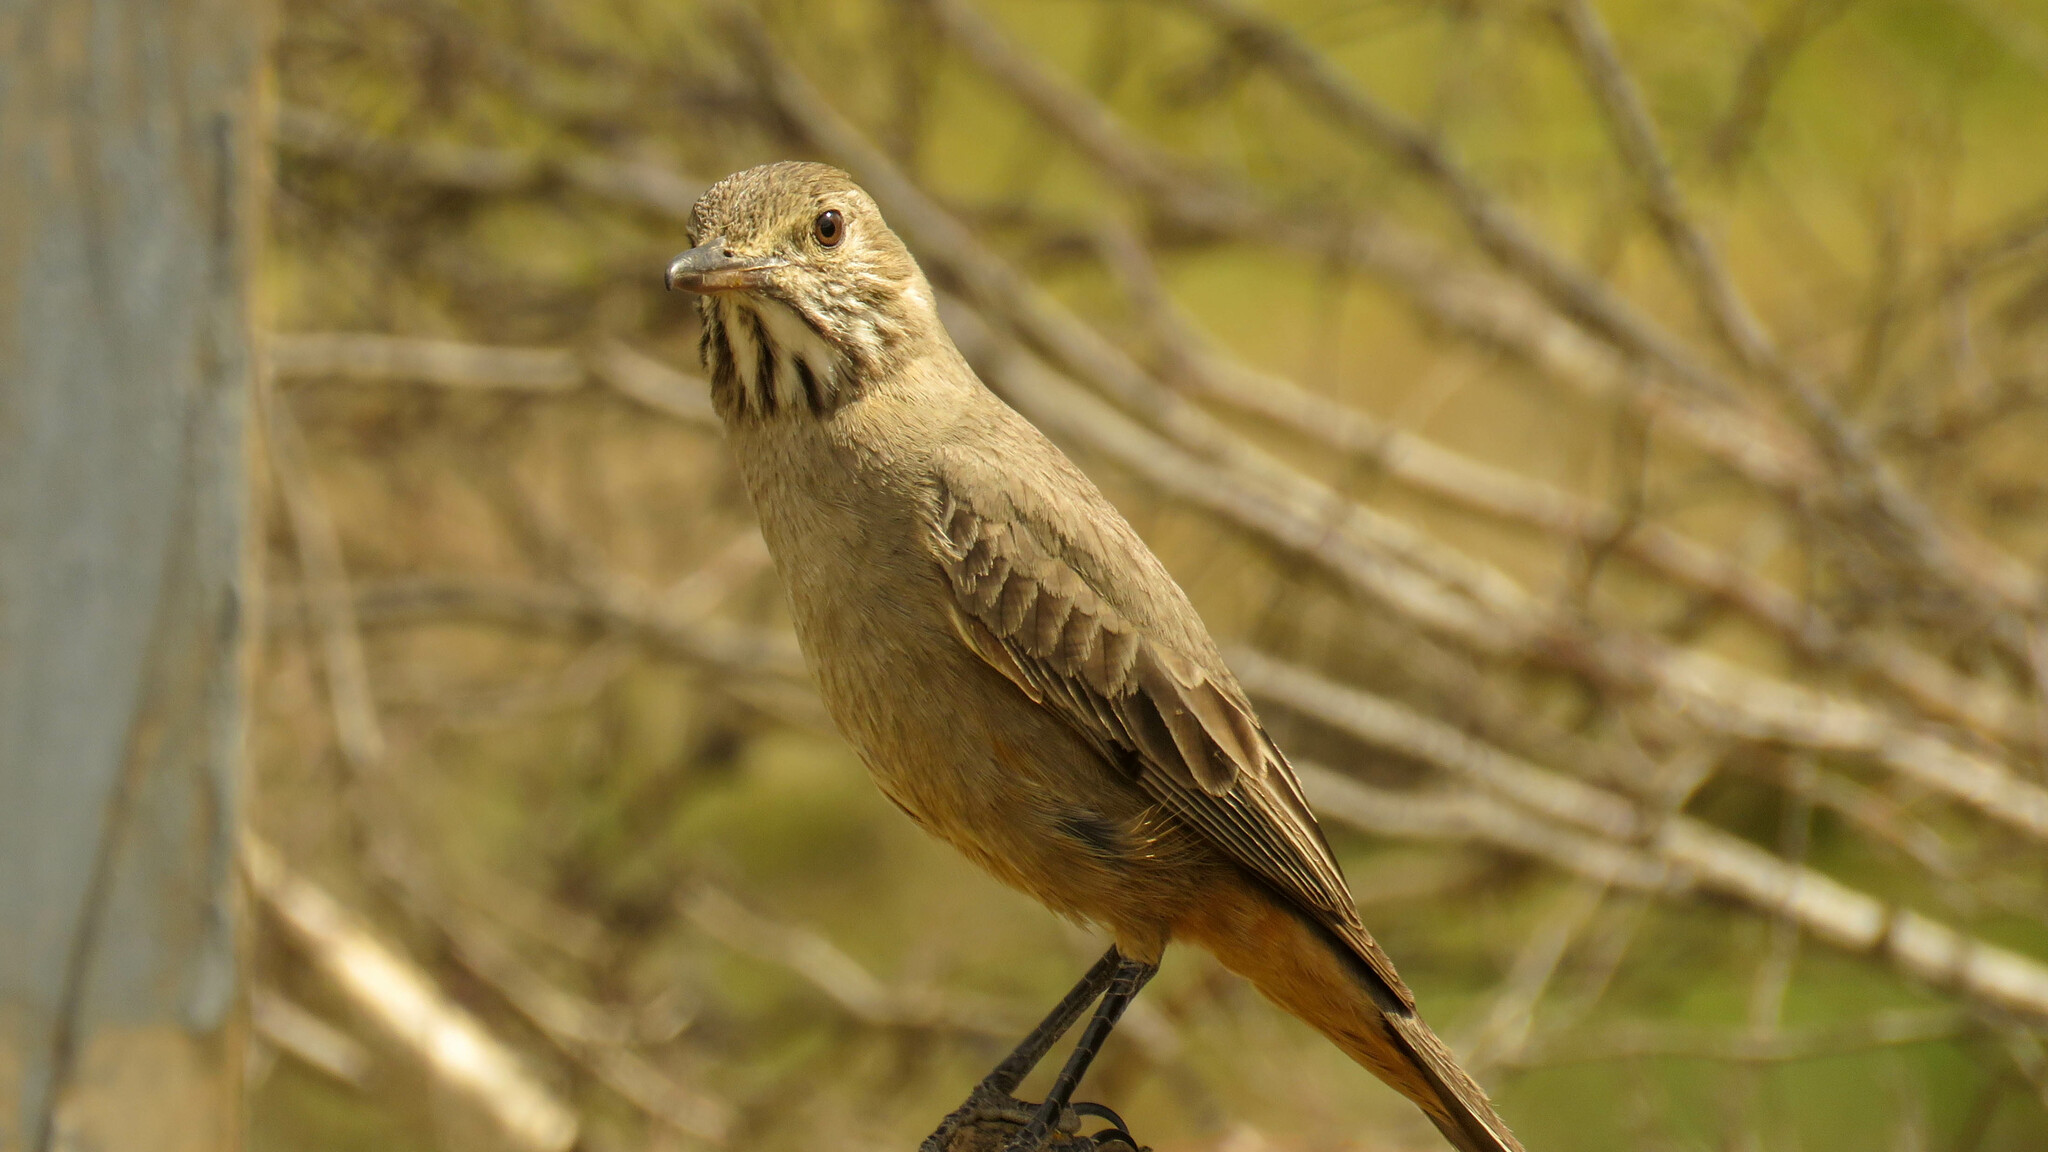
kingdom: Animalia
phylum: Chordata
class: Aves
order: Passeriformes
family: Tyrannidae
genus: Agriornis
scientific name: Agriornis lividus
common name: Great shrike-tyrant
